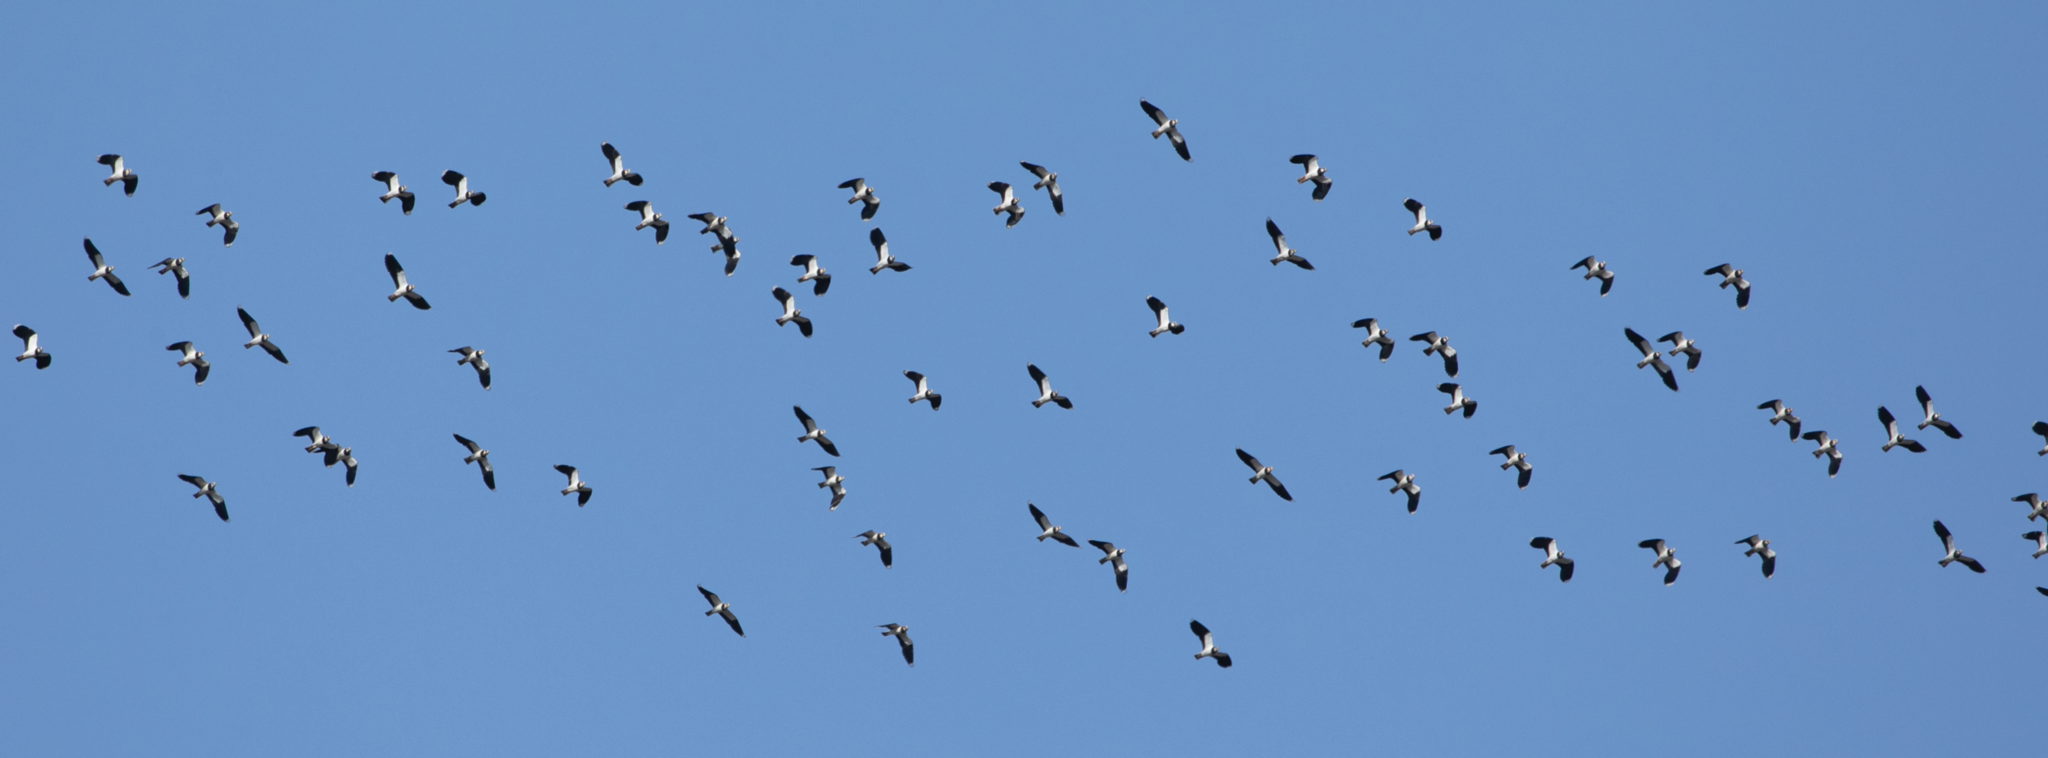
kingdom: Animalia
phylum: Chordata
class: Aves
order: Charadriiformes
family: Charadriidae
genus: Vanellus
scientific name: Vanellus vanellus
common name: Northern lapwing
